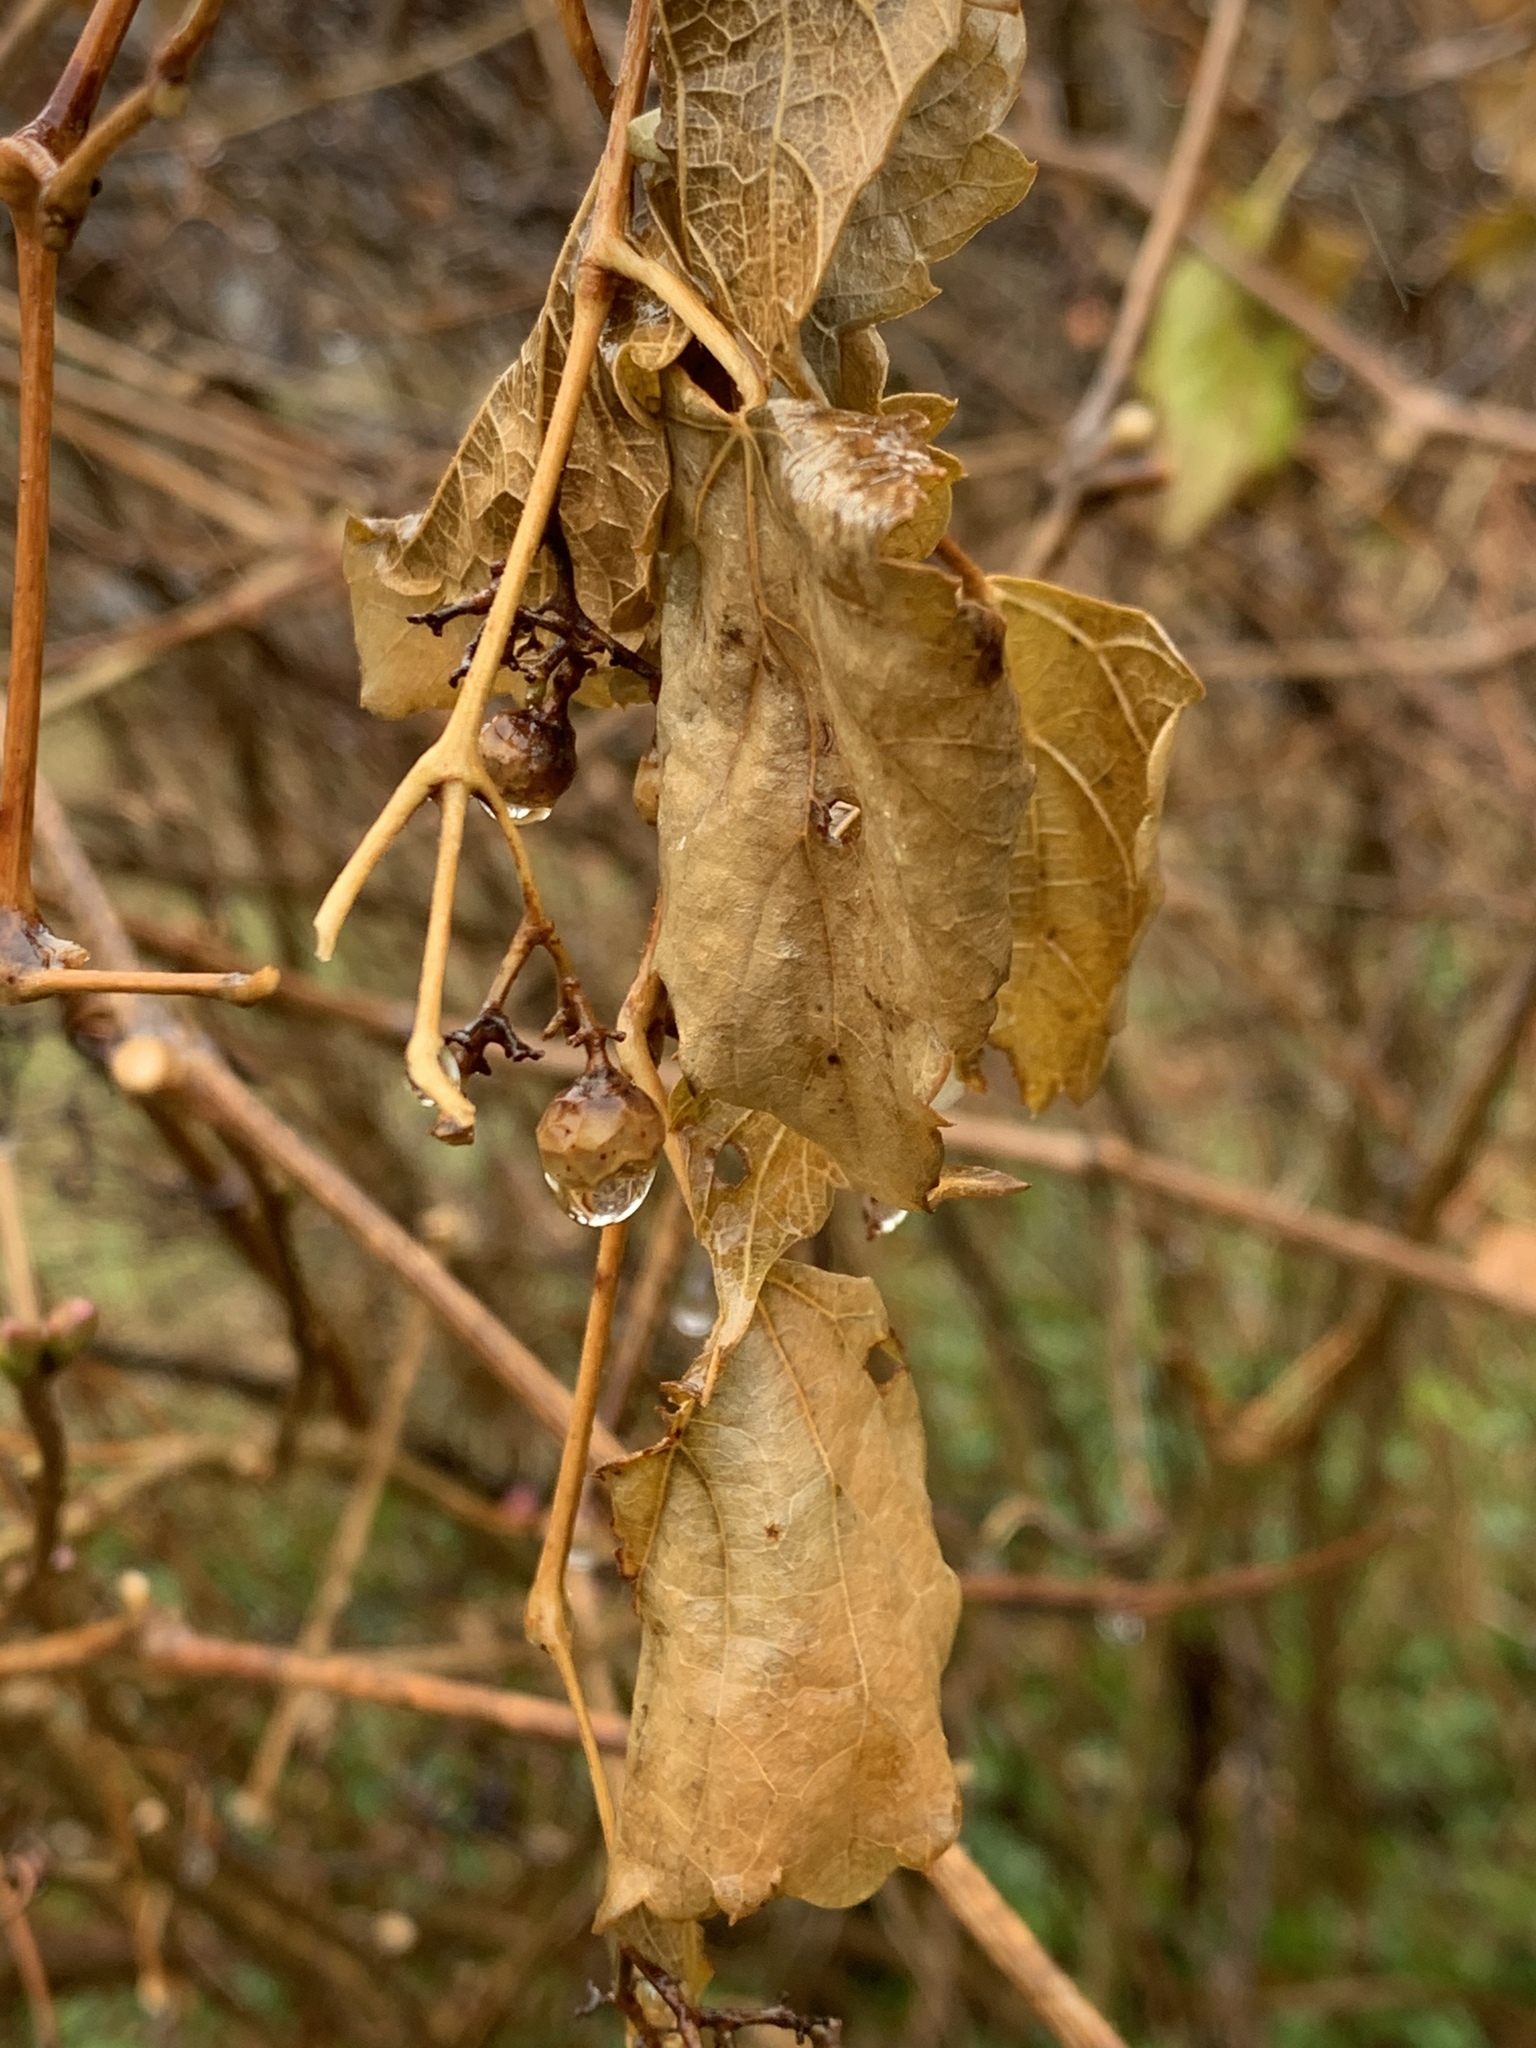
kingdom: Plantae
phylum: Tracheophyta
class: Magnoliopsida
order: Vitales
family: Vitaceae
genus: Ampelopsis
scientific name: Ampelopsis glandulosa
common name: Amur peppervine
